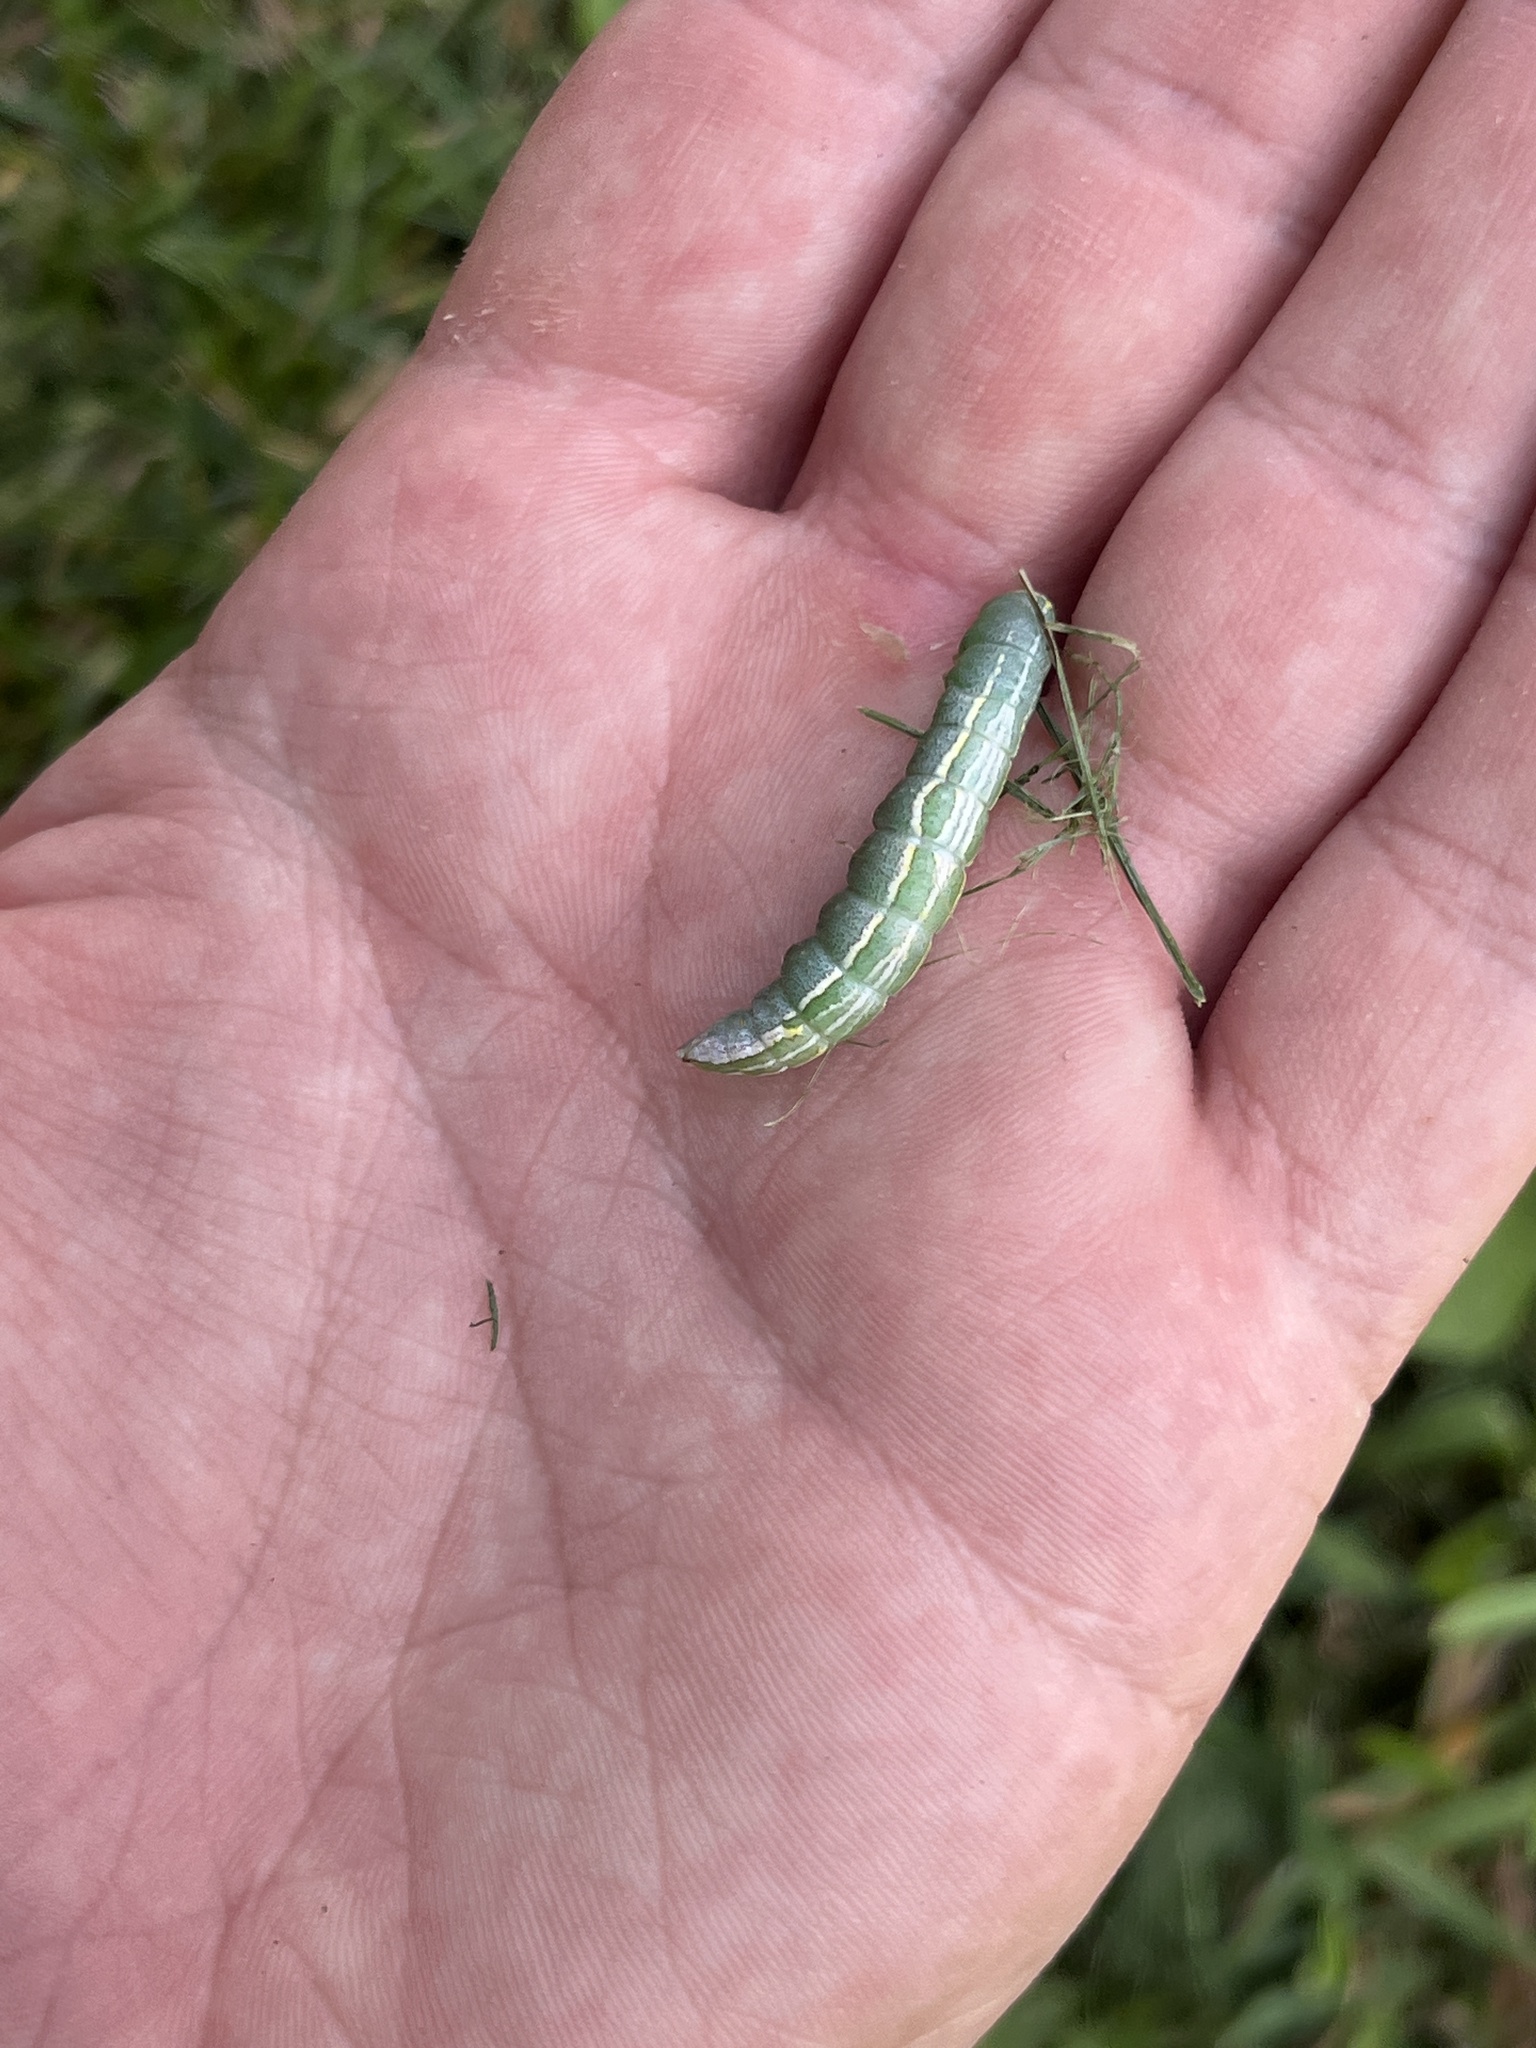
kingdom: Animalia
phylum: Arthropoda
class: Insecta
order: Lepidoptera
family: Notodontidae
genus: Disphragis
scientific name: Disphragis Cecrita guttivitta
